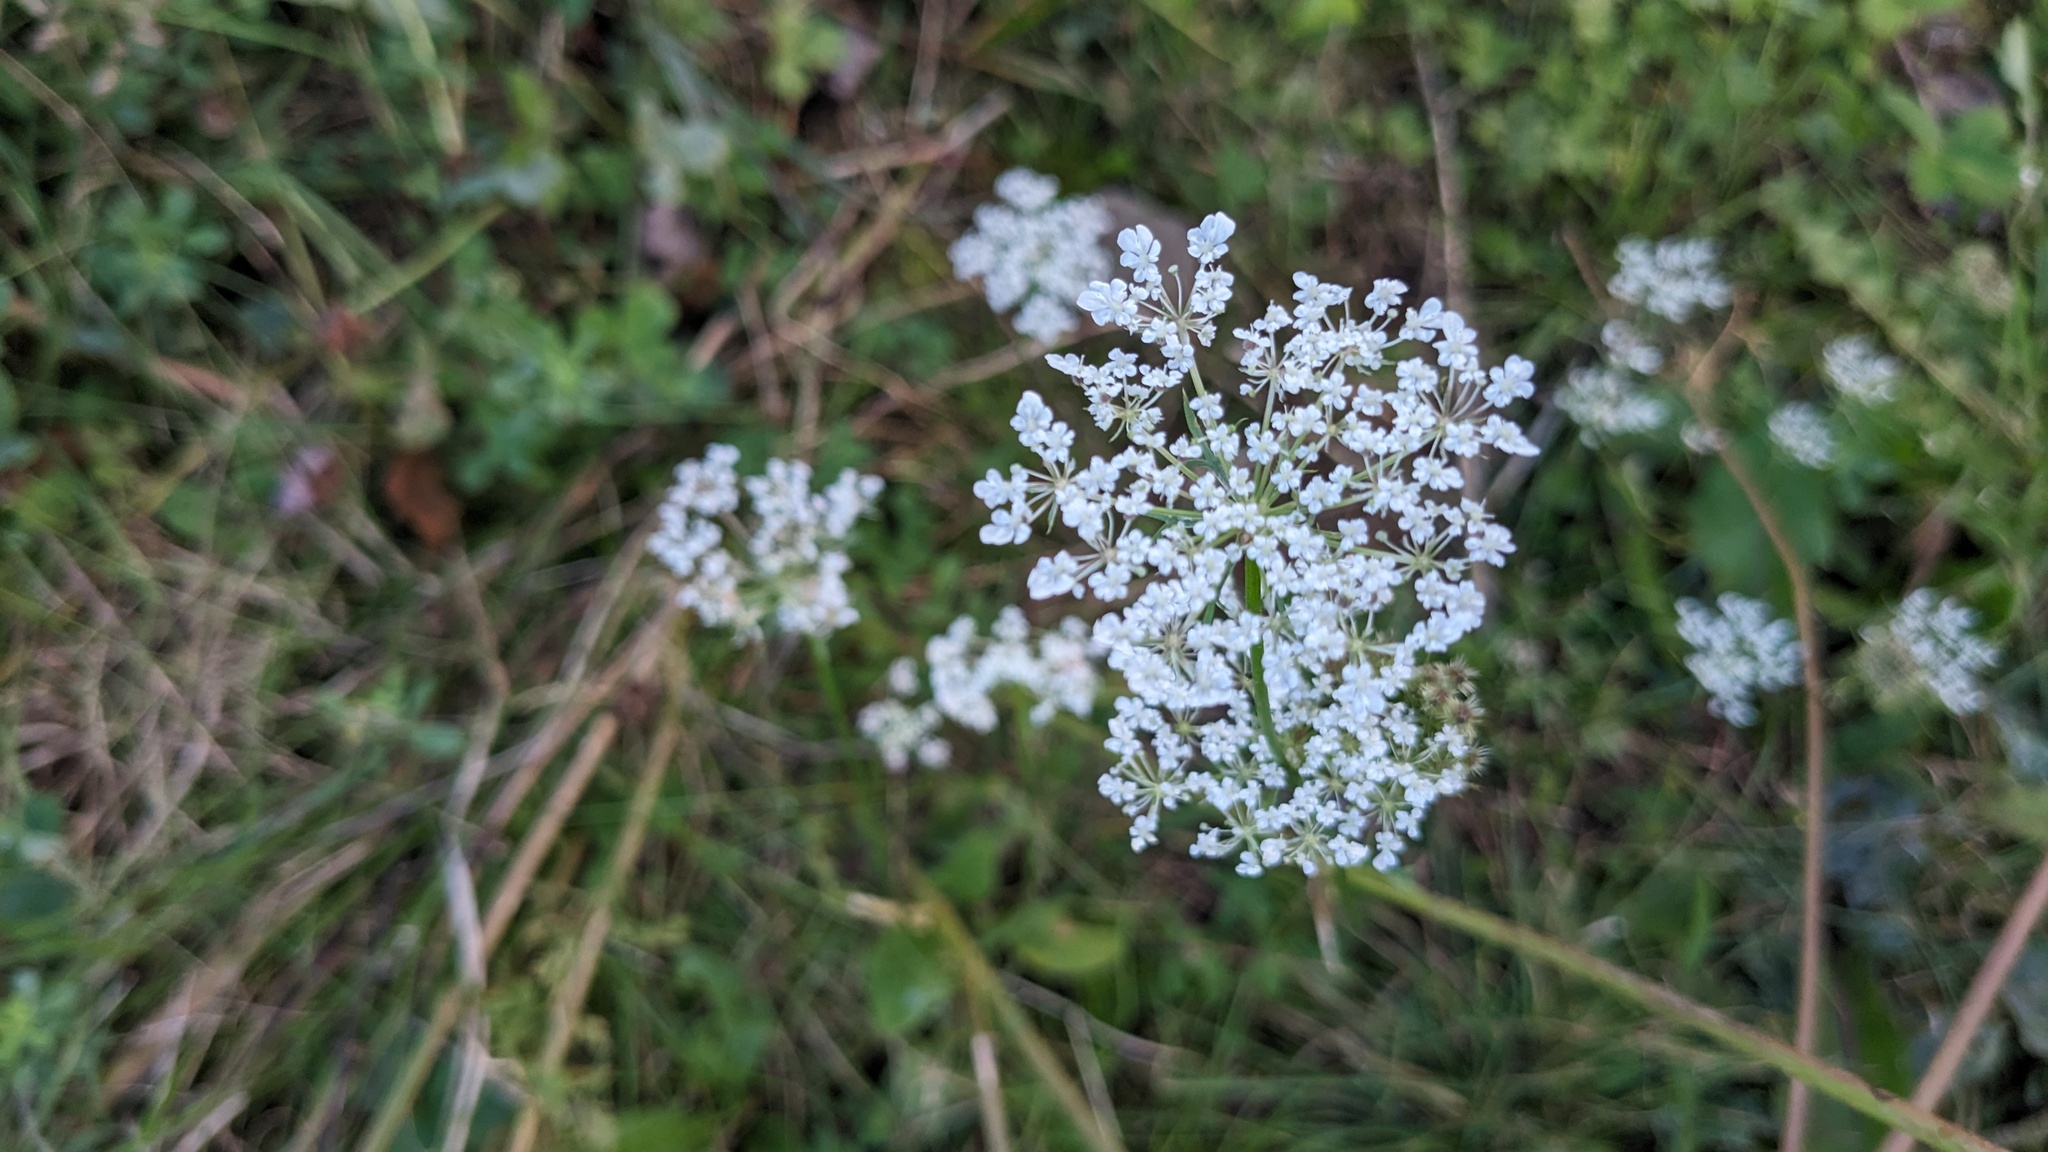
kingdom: Plantae
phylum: Tracheophyta
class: Magnoliopsida
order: Apiales
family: Apiaceae
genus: Daucus
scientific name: Daucus carota
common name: Wild carrot
